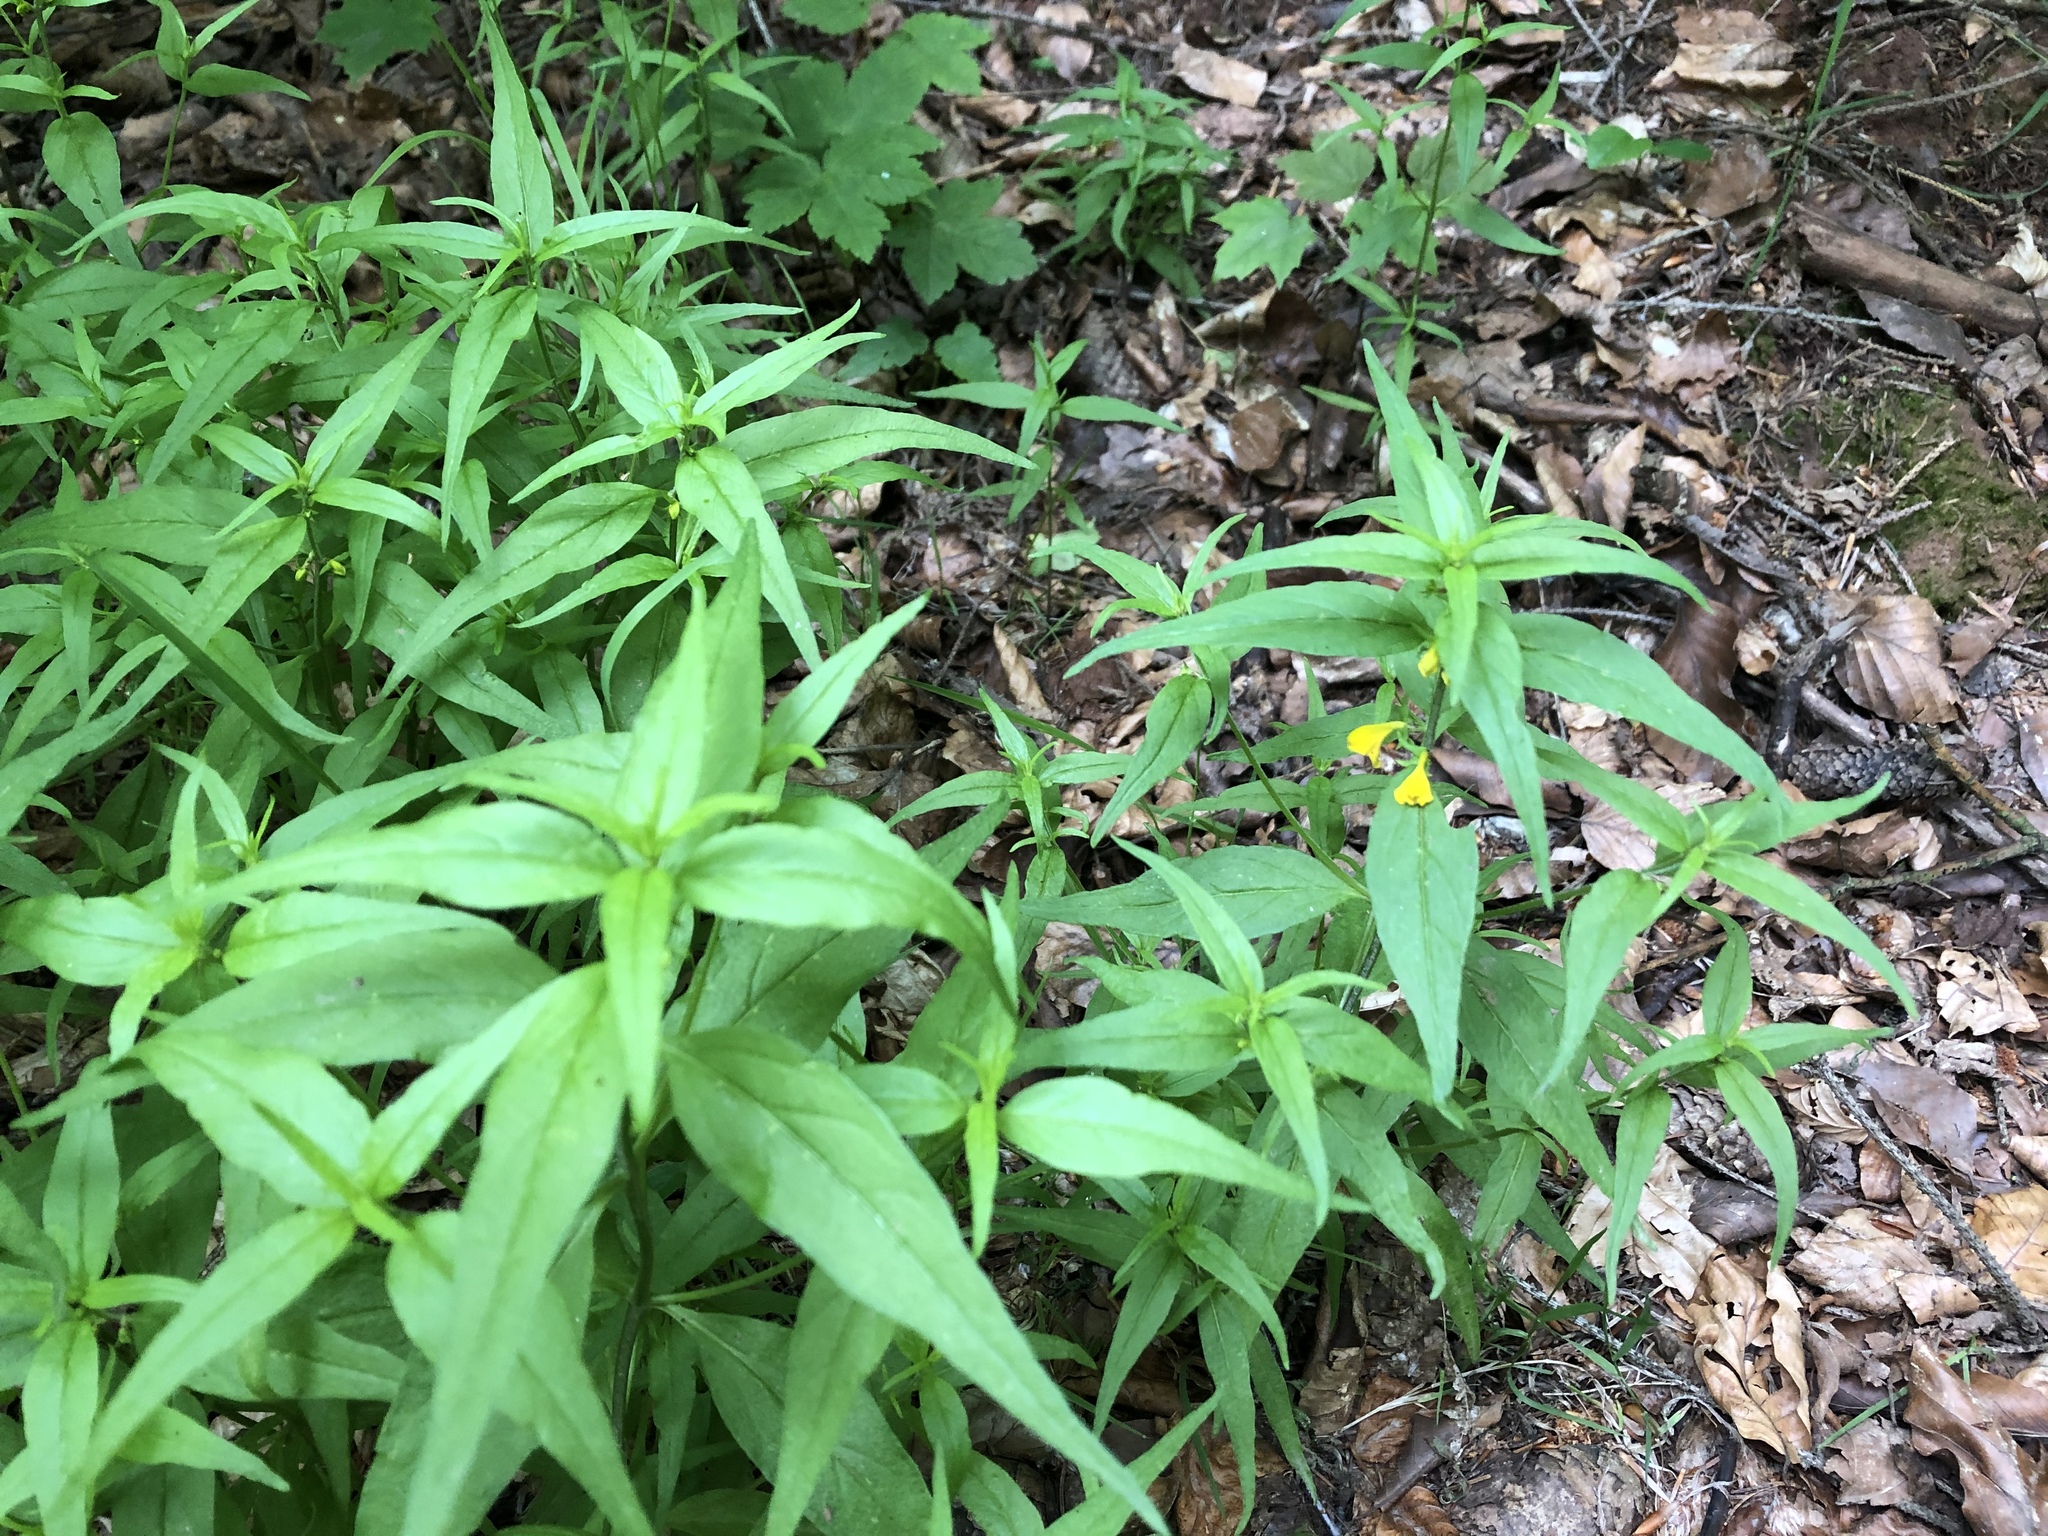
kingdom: Plantae
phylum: Tracheophyta
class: Magnoliopsida
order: Lamiales
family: Orobanchaceae
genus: Melampyrum
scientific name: Melampyrum sylvaticum
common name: Small cow-wheat
